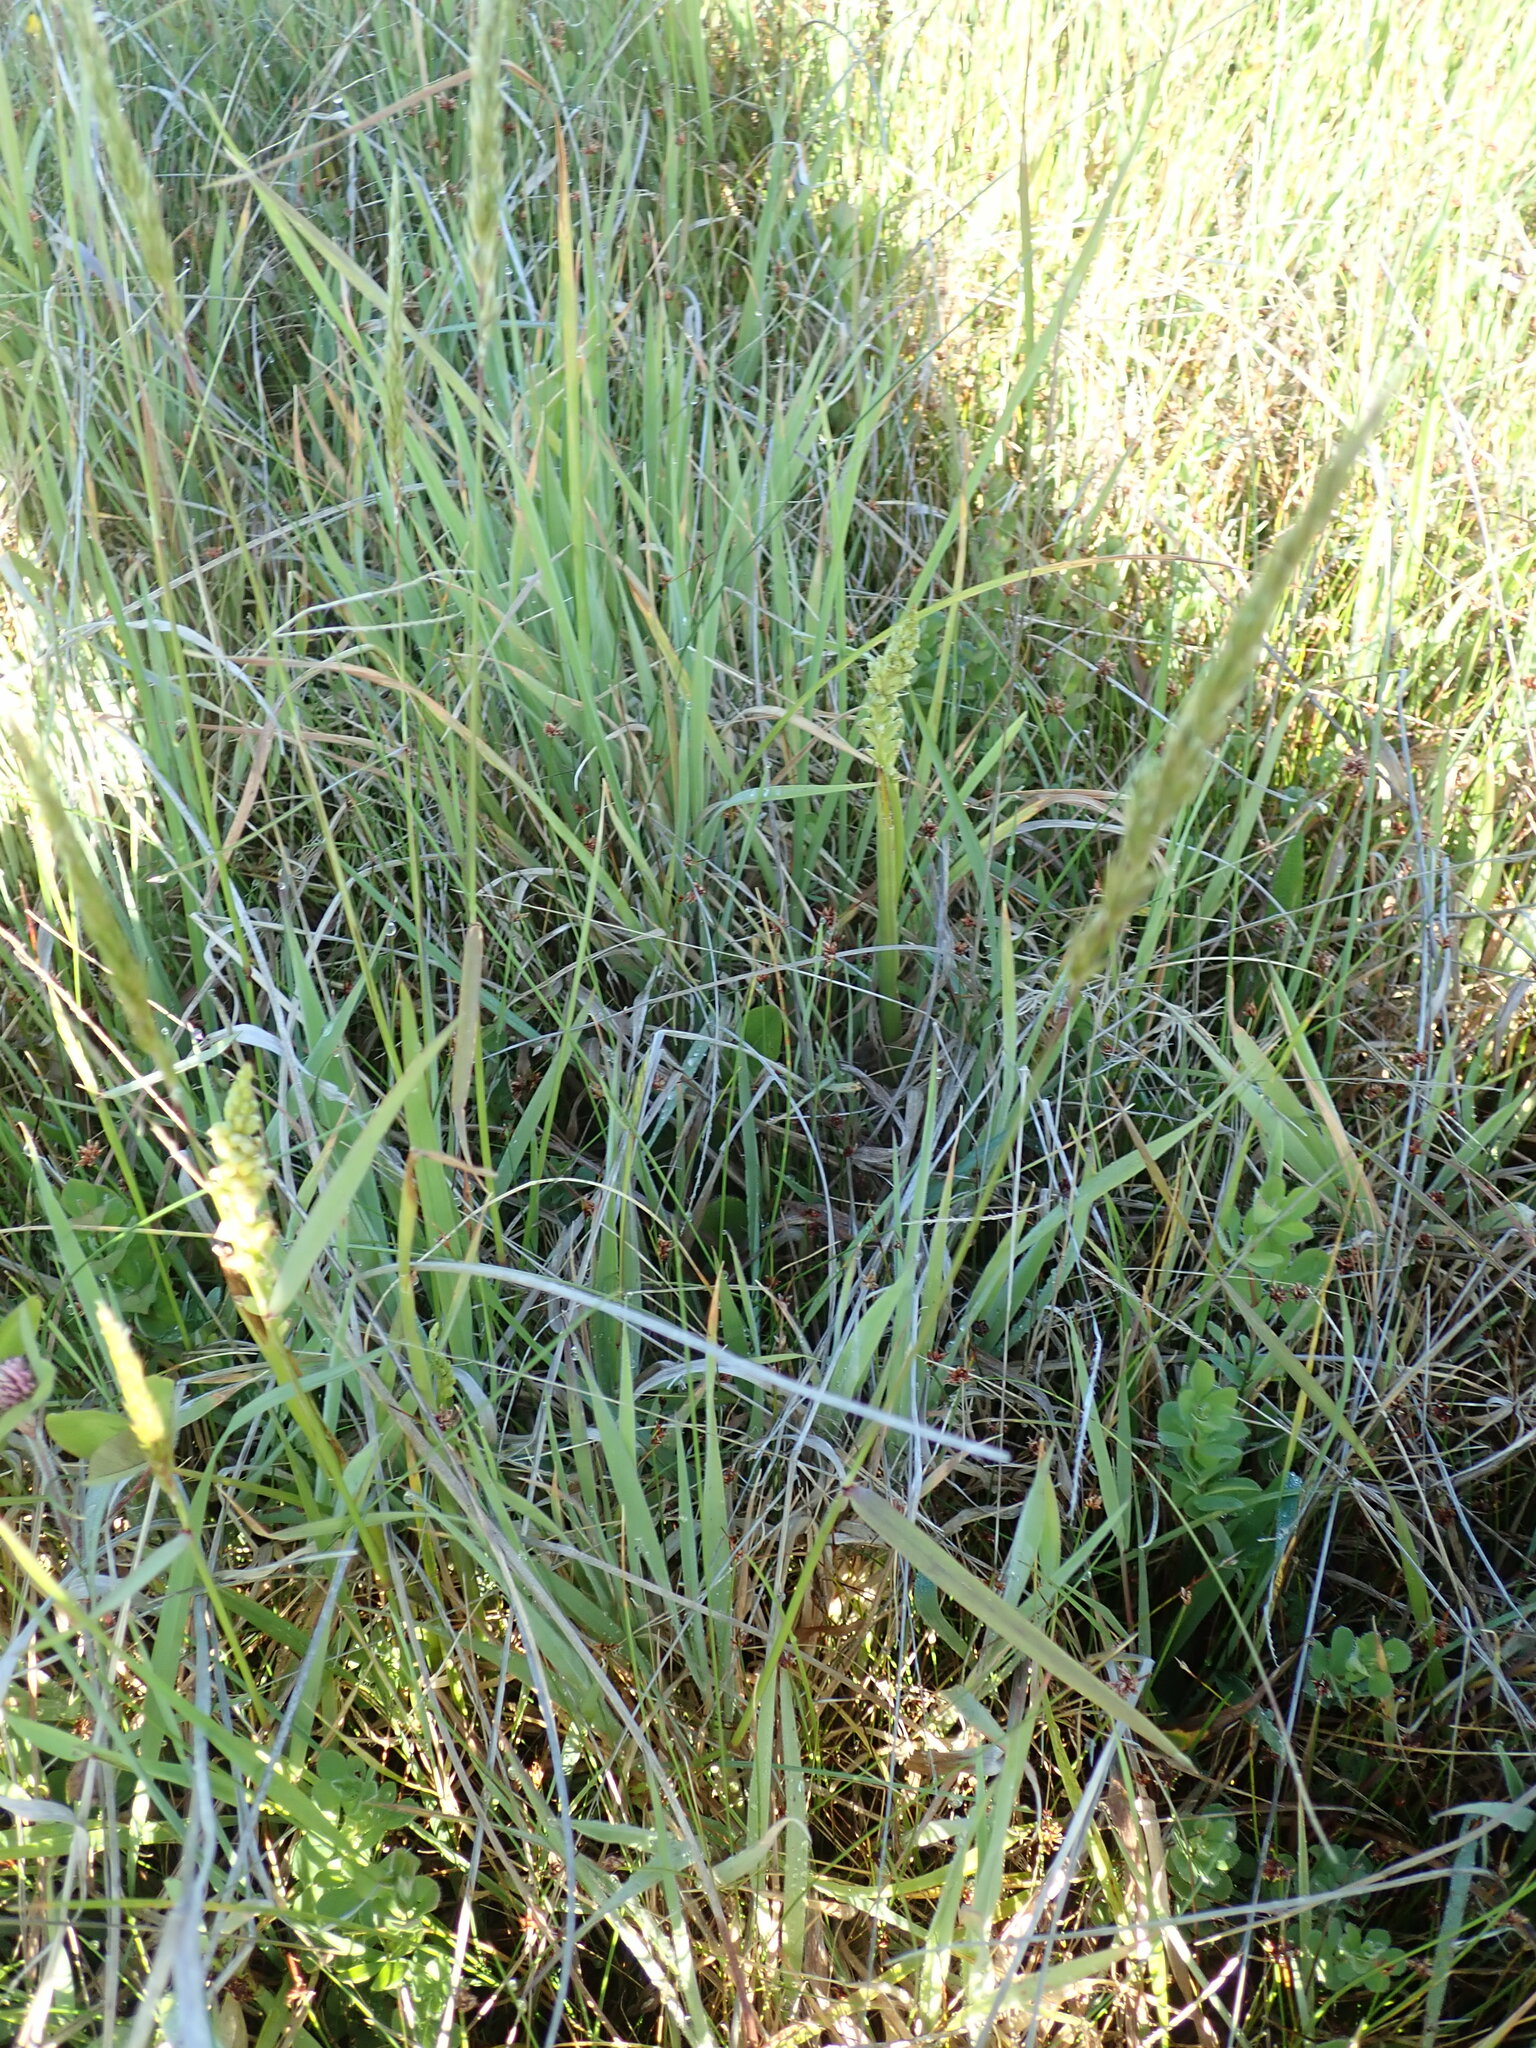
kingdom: Plantae
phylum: Tracheophyta
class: Liliopsida
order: Asparagales
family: Orchidaceae
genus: Microtis
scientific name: Microtis unifolia
